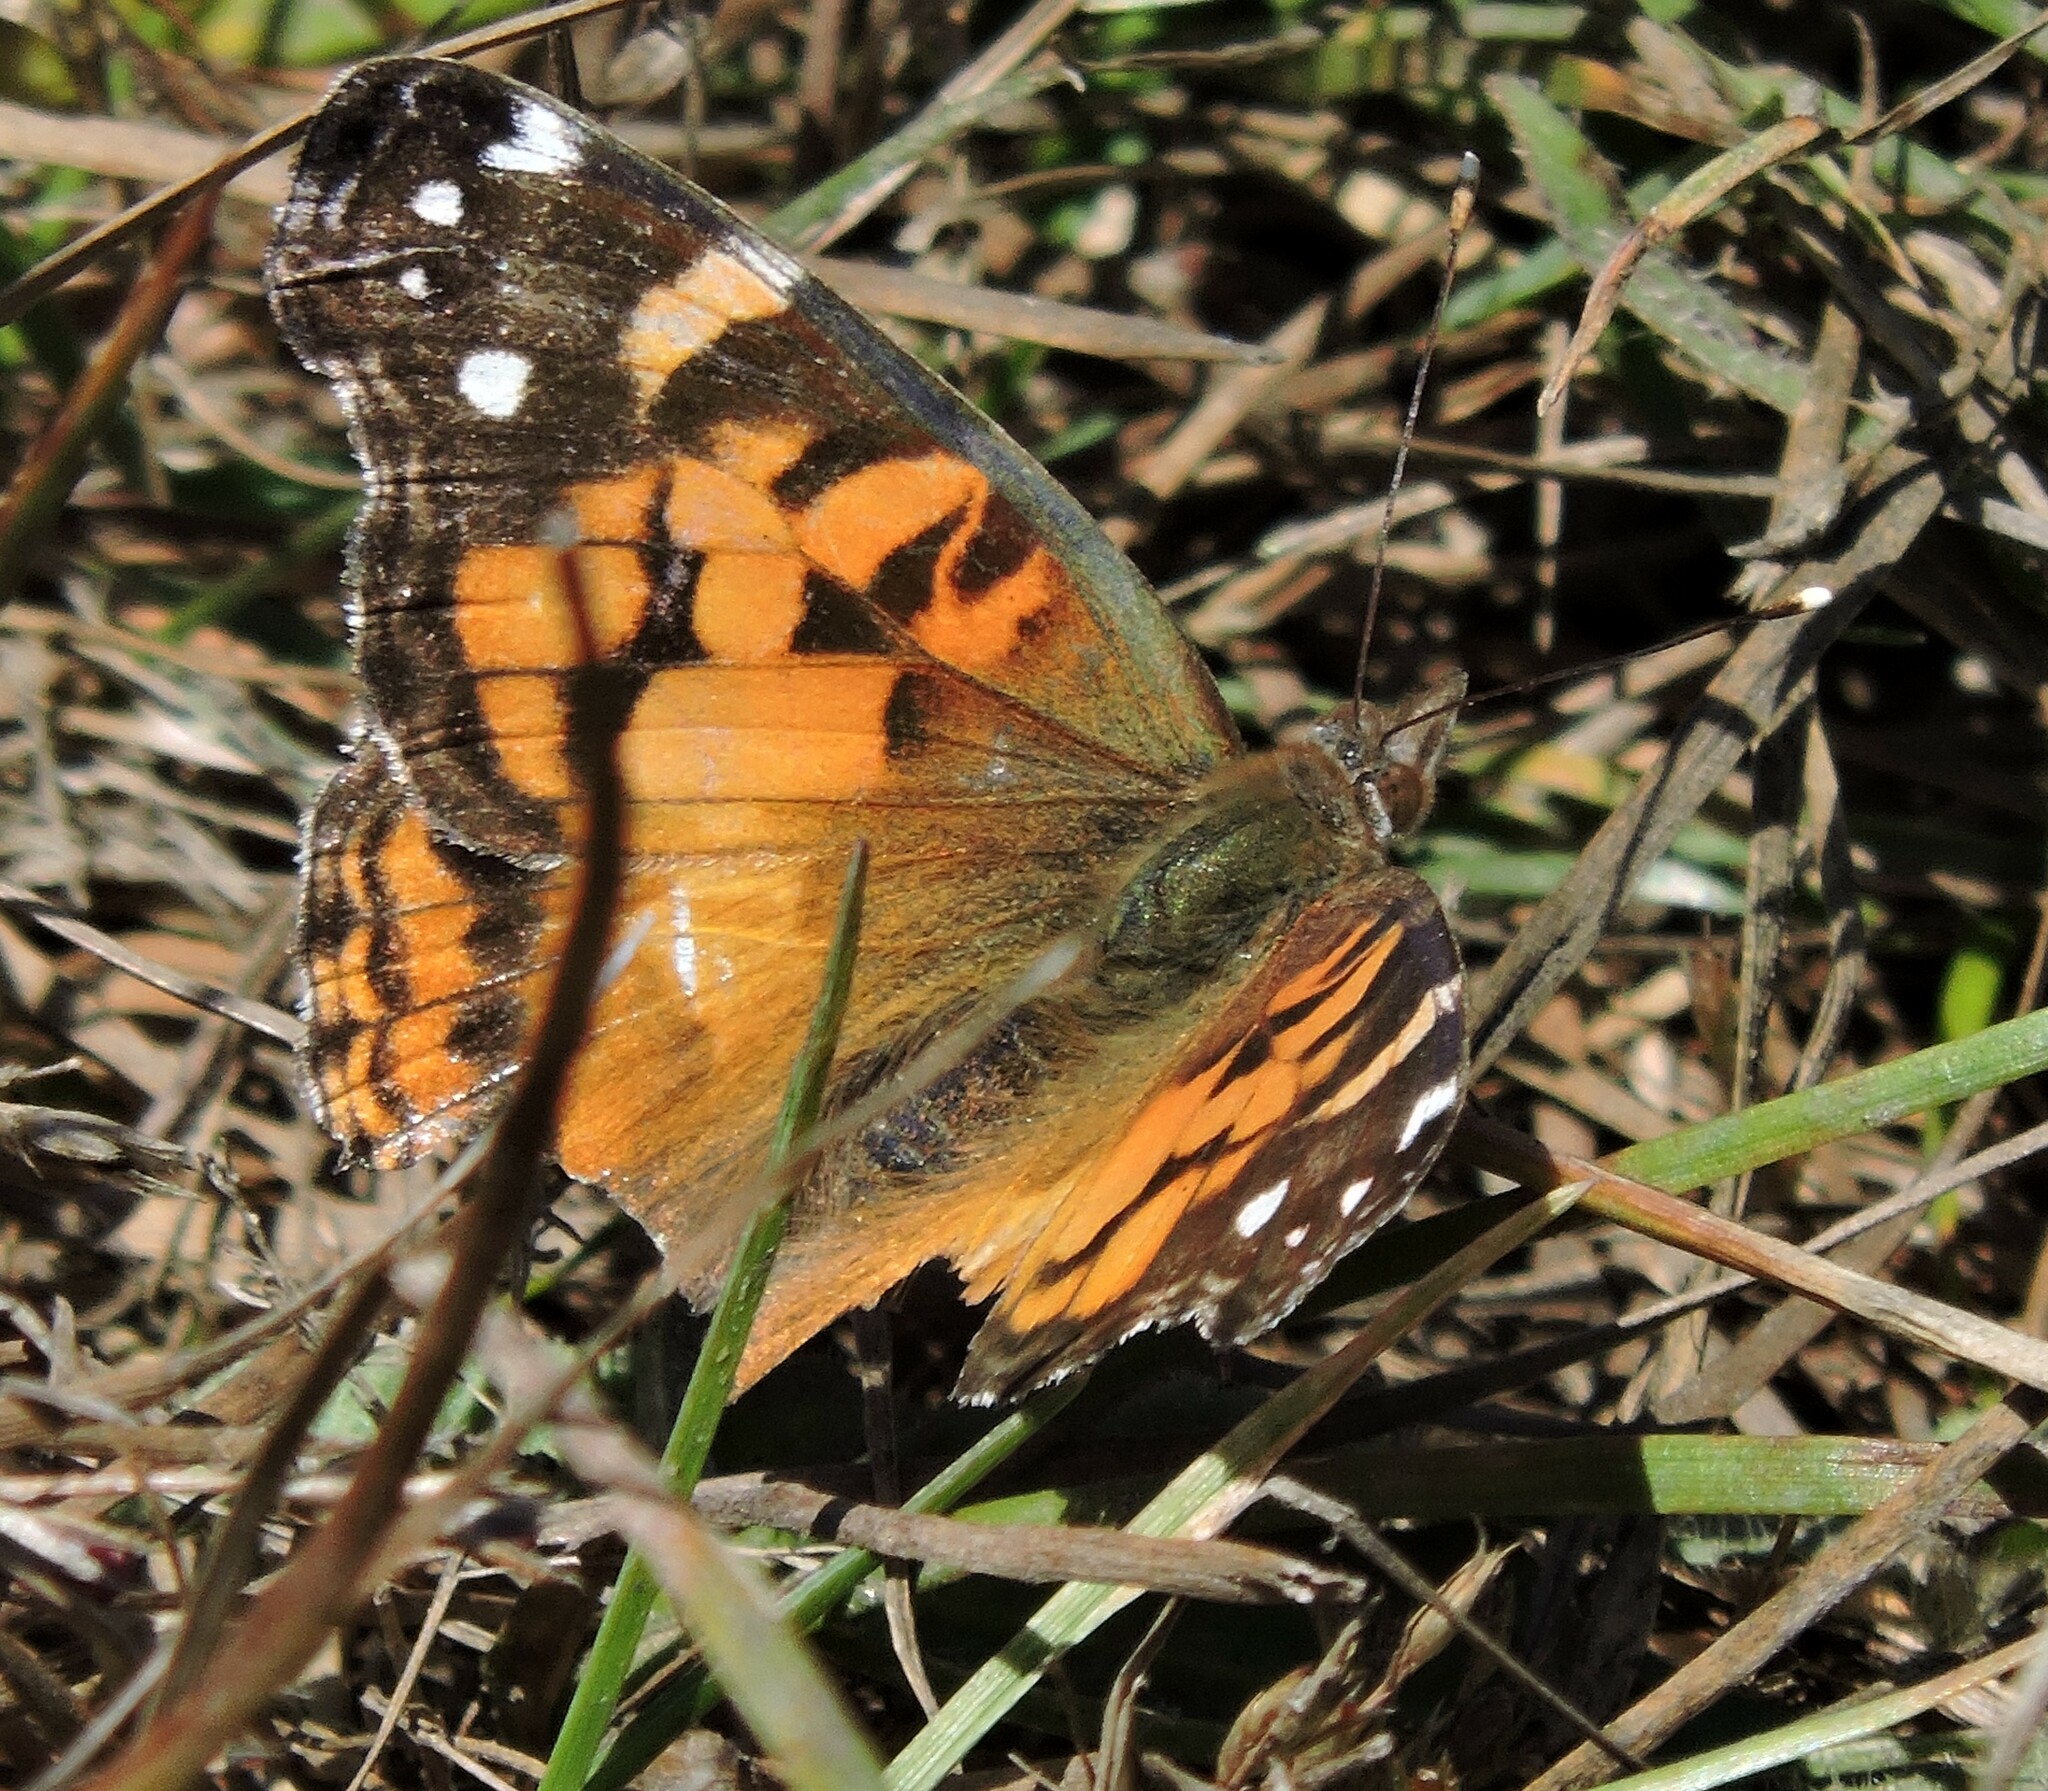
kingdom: Animalia
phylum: Arthropoda
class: Insecta
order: Lepidoptera
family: Nymphalidae
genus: Vanessa
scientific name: Vanessa virginiensis
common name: American lady
